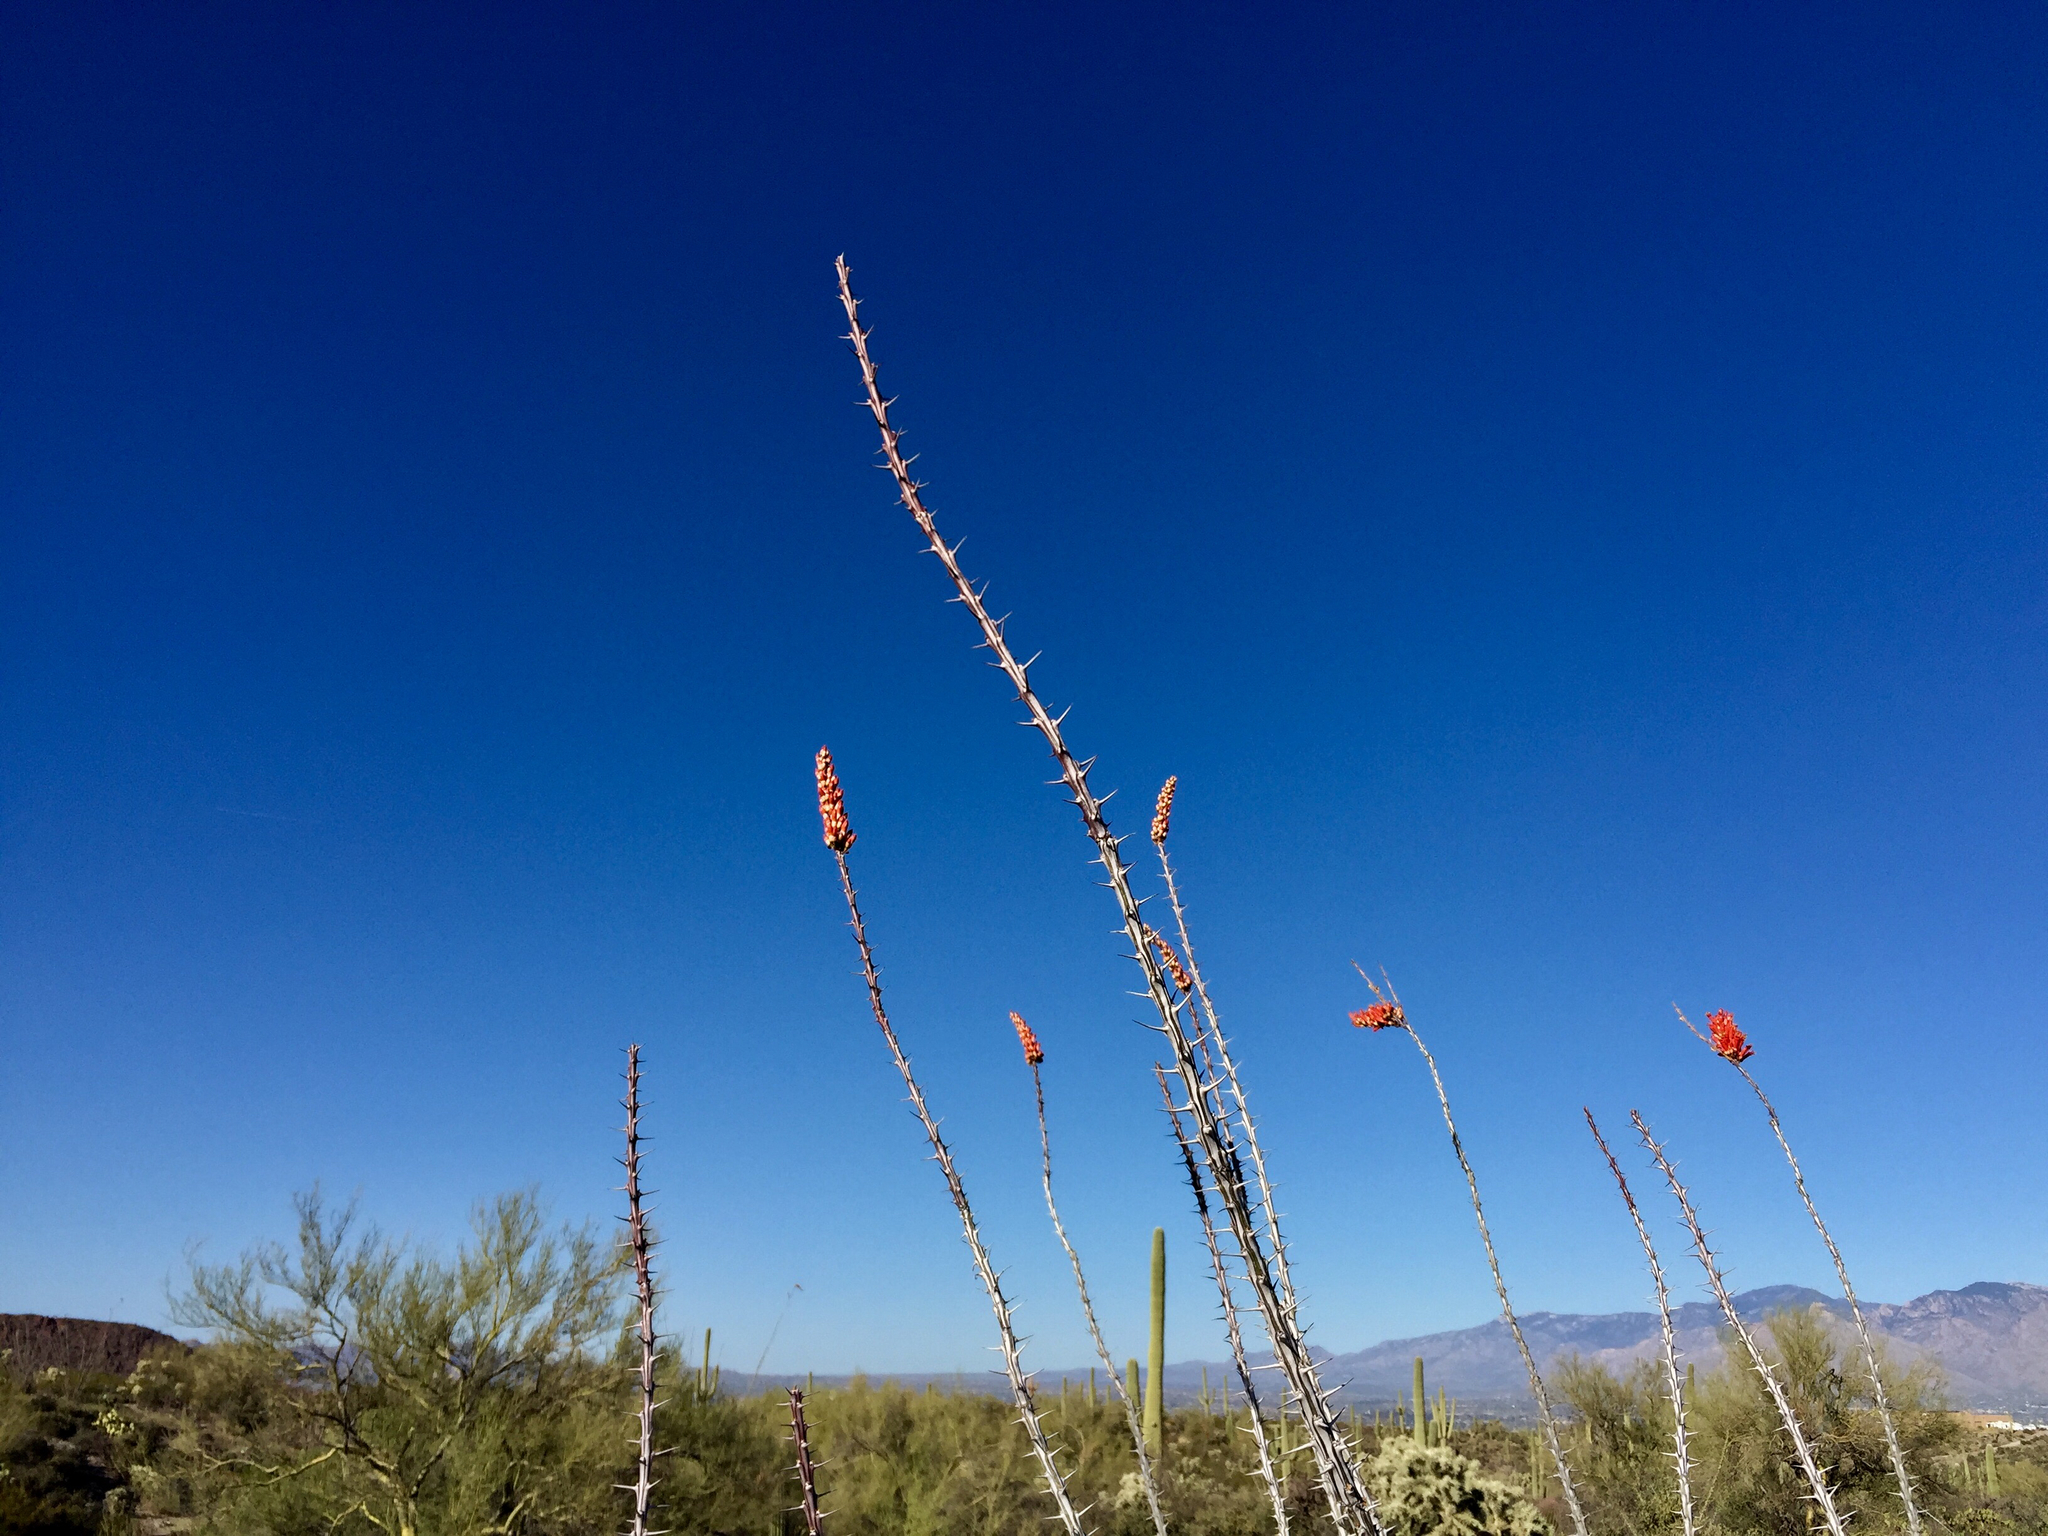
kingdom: Plantae
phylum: Tracheophyta
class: Magnoliopsida
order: Ericales
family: Fouquieriaceae
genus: Fouquieria
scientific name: Fouquieria splendens
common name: Vine-cactus
